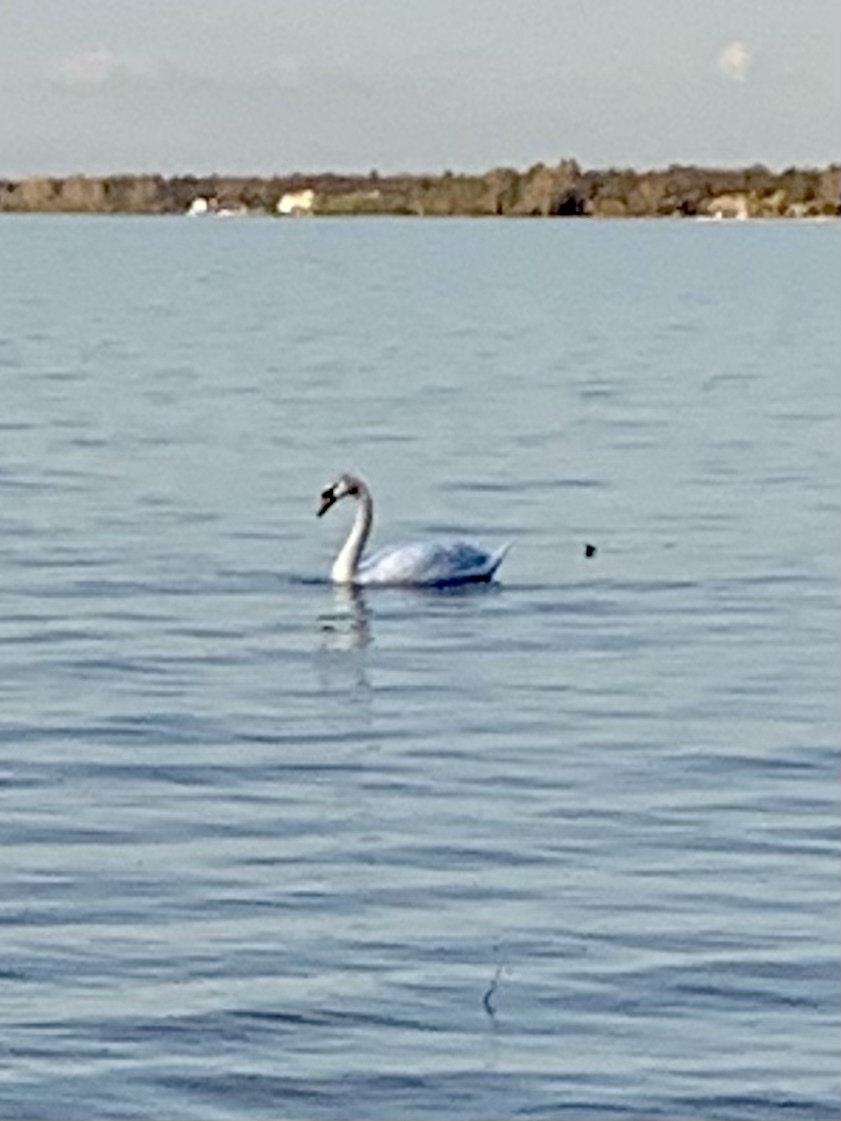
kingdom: Animalia
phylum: Chordata
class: Aves
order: Anseriformes
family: Anatidae
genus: Cygnus
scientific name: Cygnus olor
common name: Mute swan
